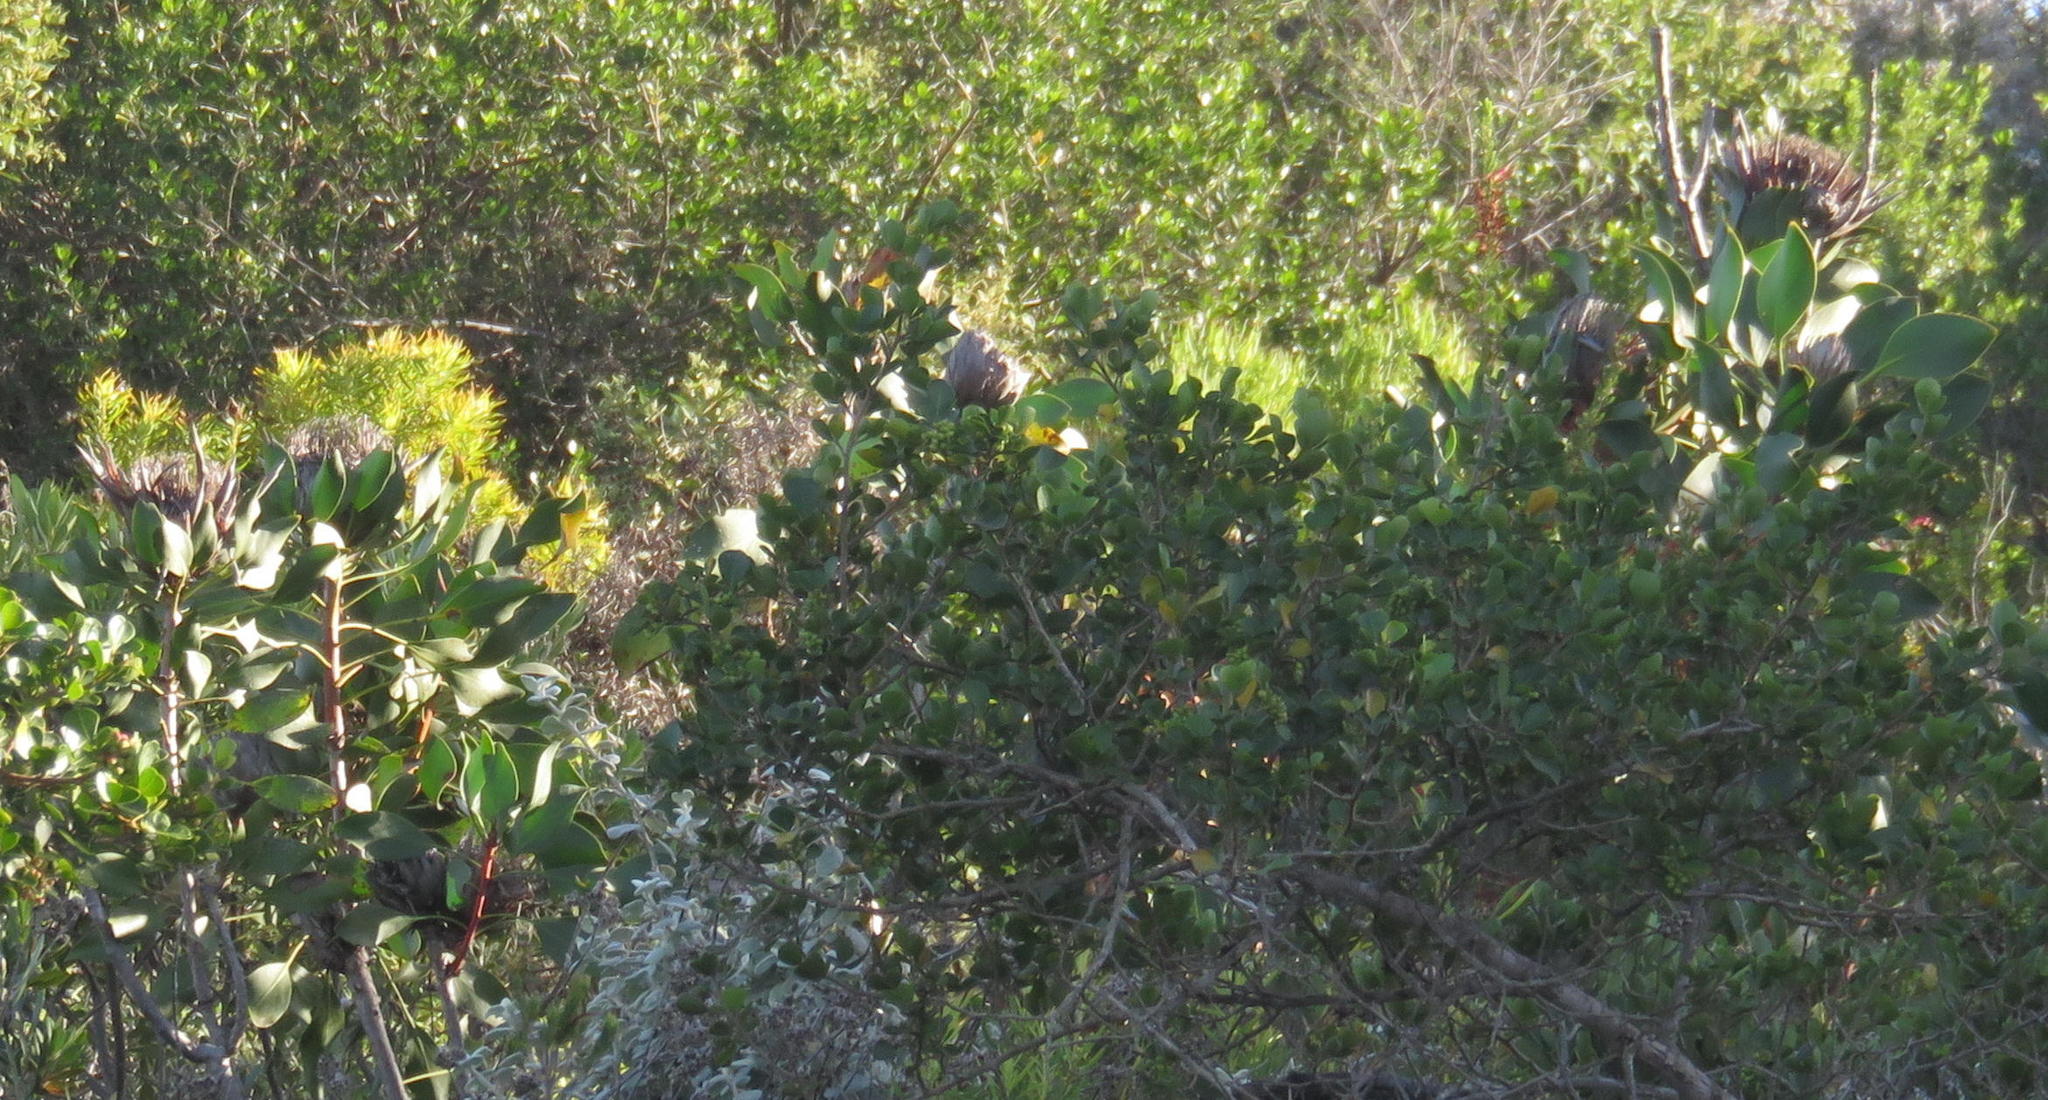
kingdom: Plantae
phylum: Tracheophyta
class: Magnoliopsida
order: Proteales
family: Proteaceae
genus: Protea
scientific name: Protea cynaroides
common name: King protea
